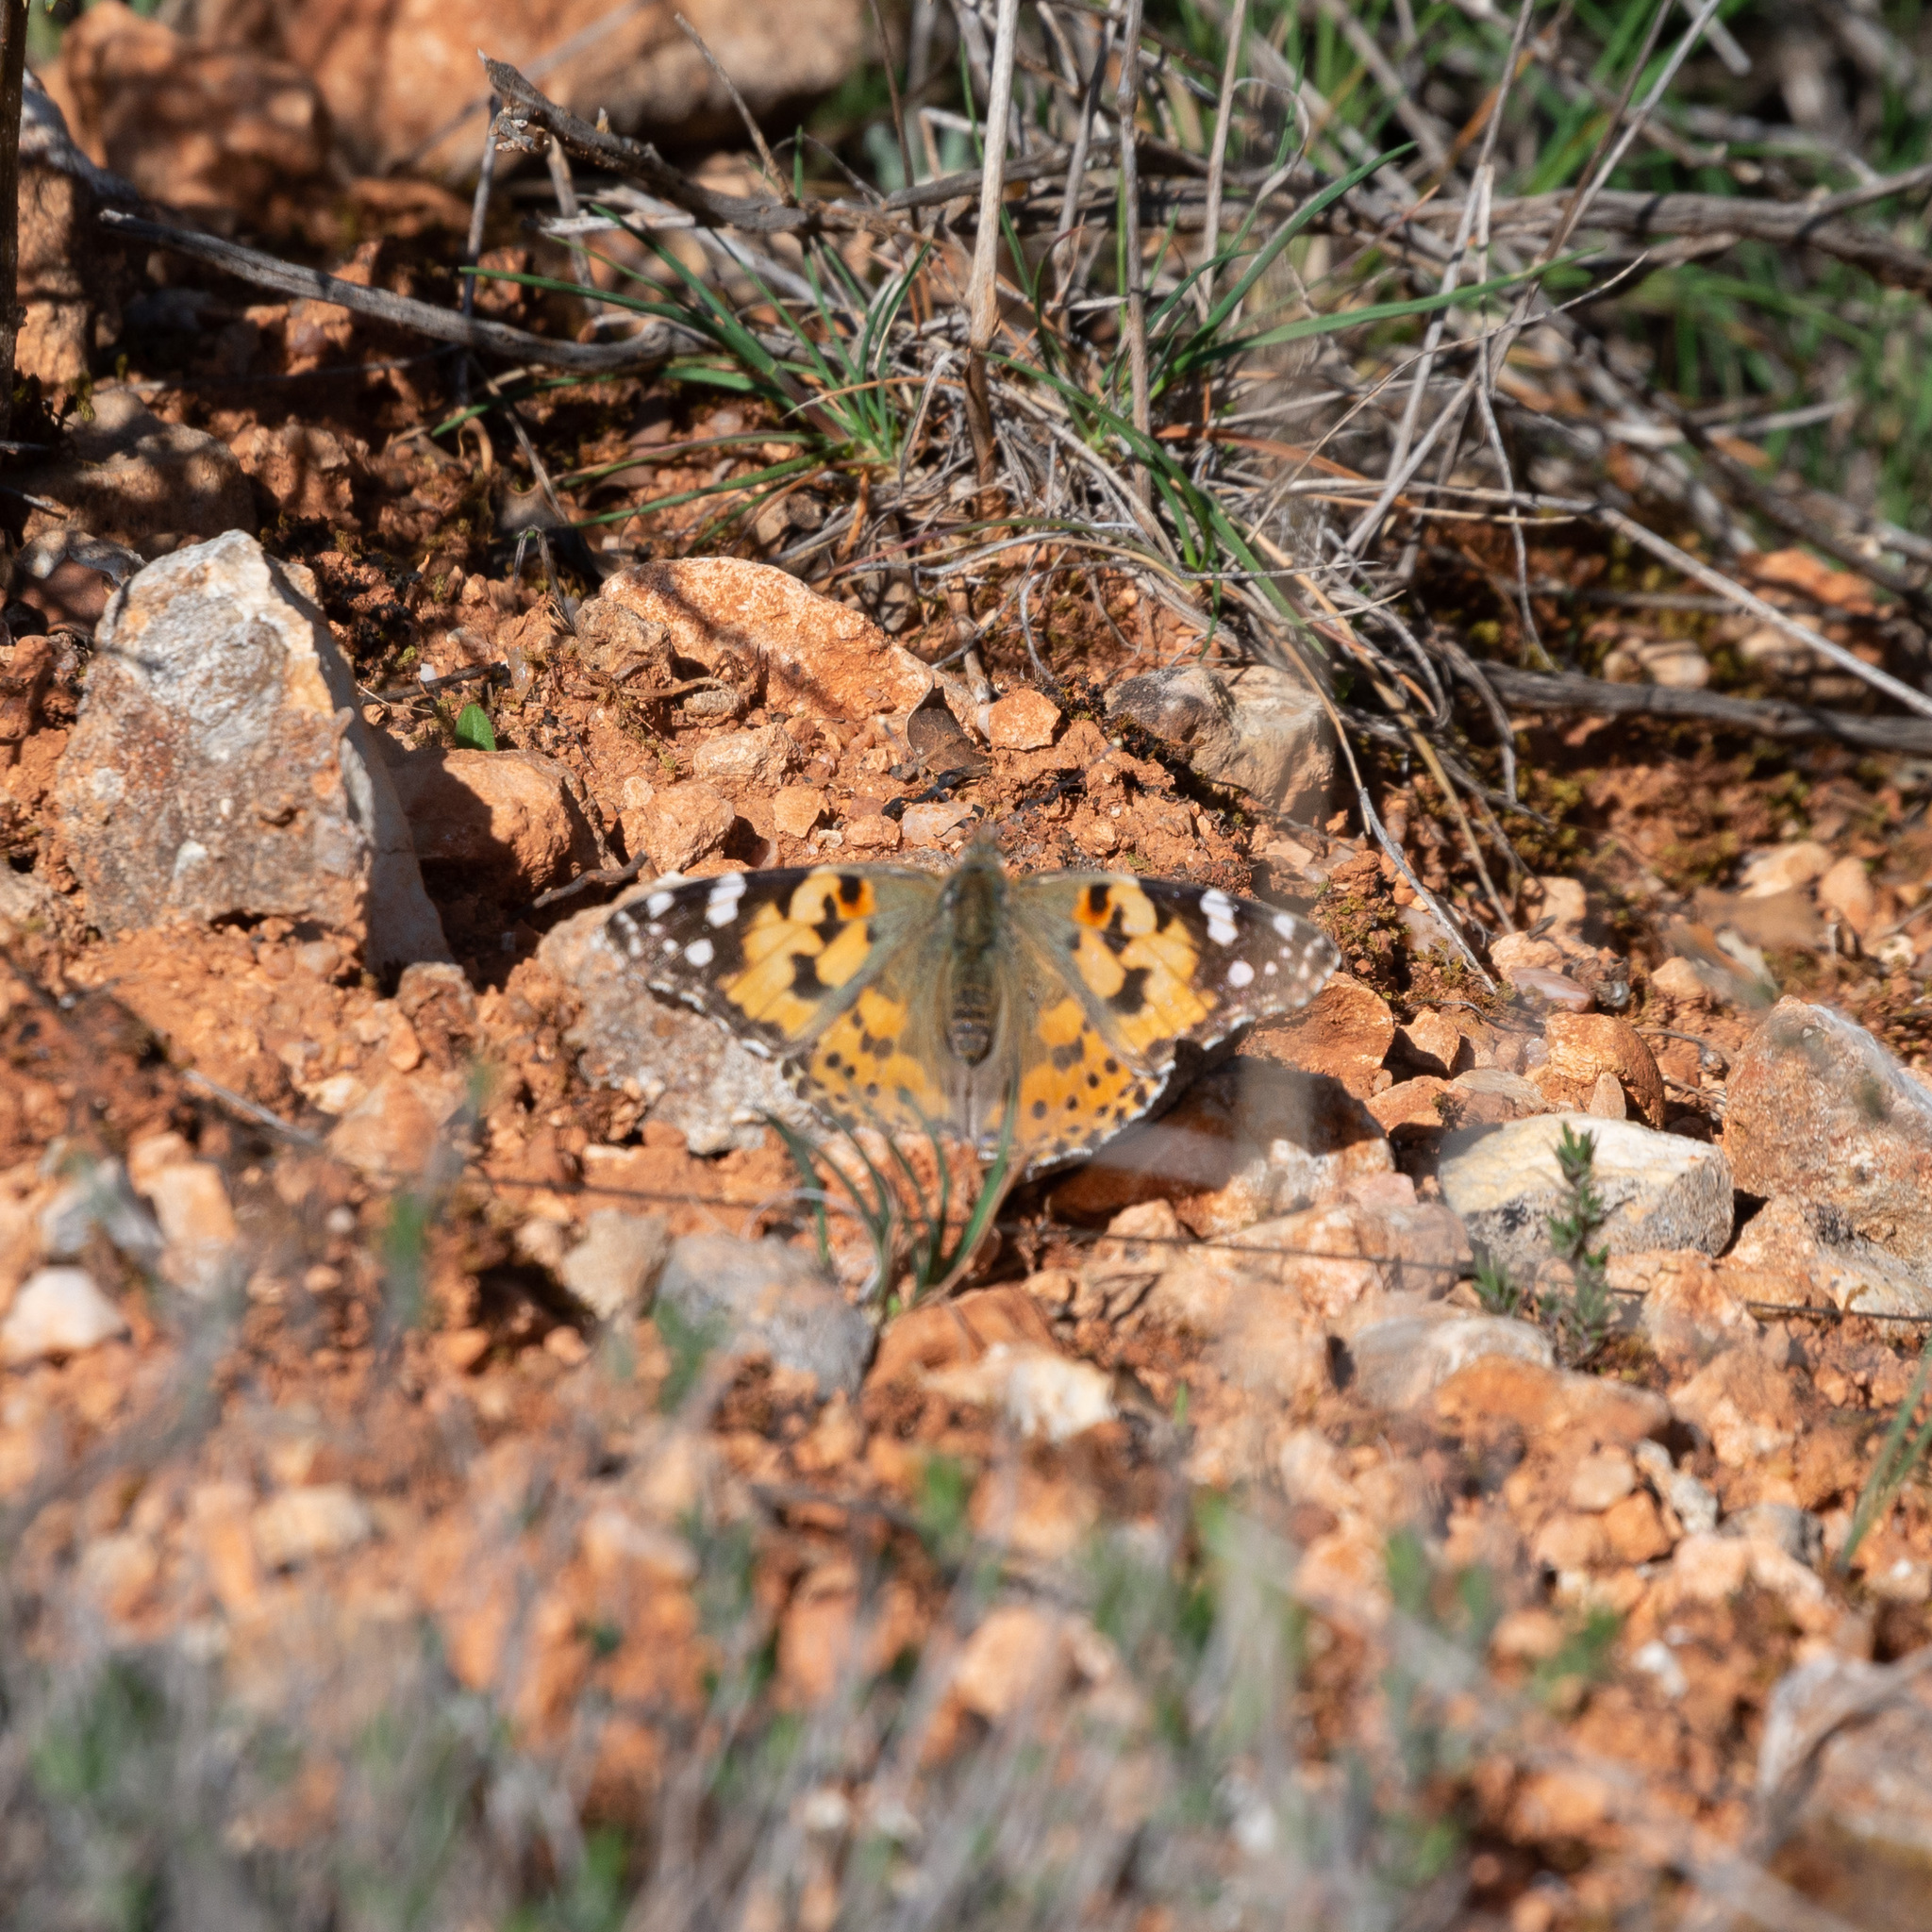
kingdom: Animalia
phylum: Arthropoda
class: Insecta
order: Lepidoptera
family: Nymphalidae
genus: Vanessa
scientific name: Vanessa cardui
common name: Painted lady
